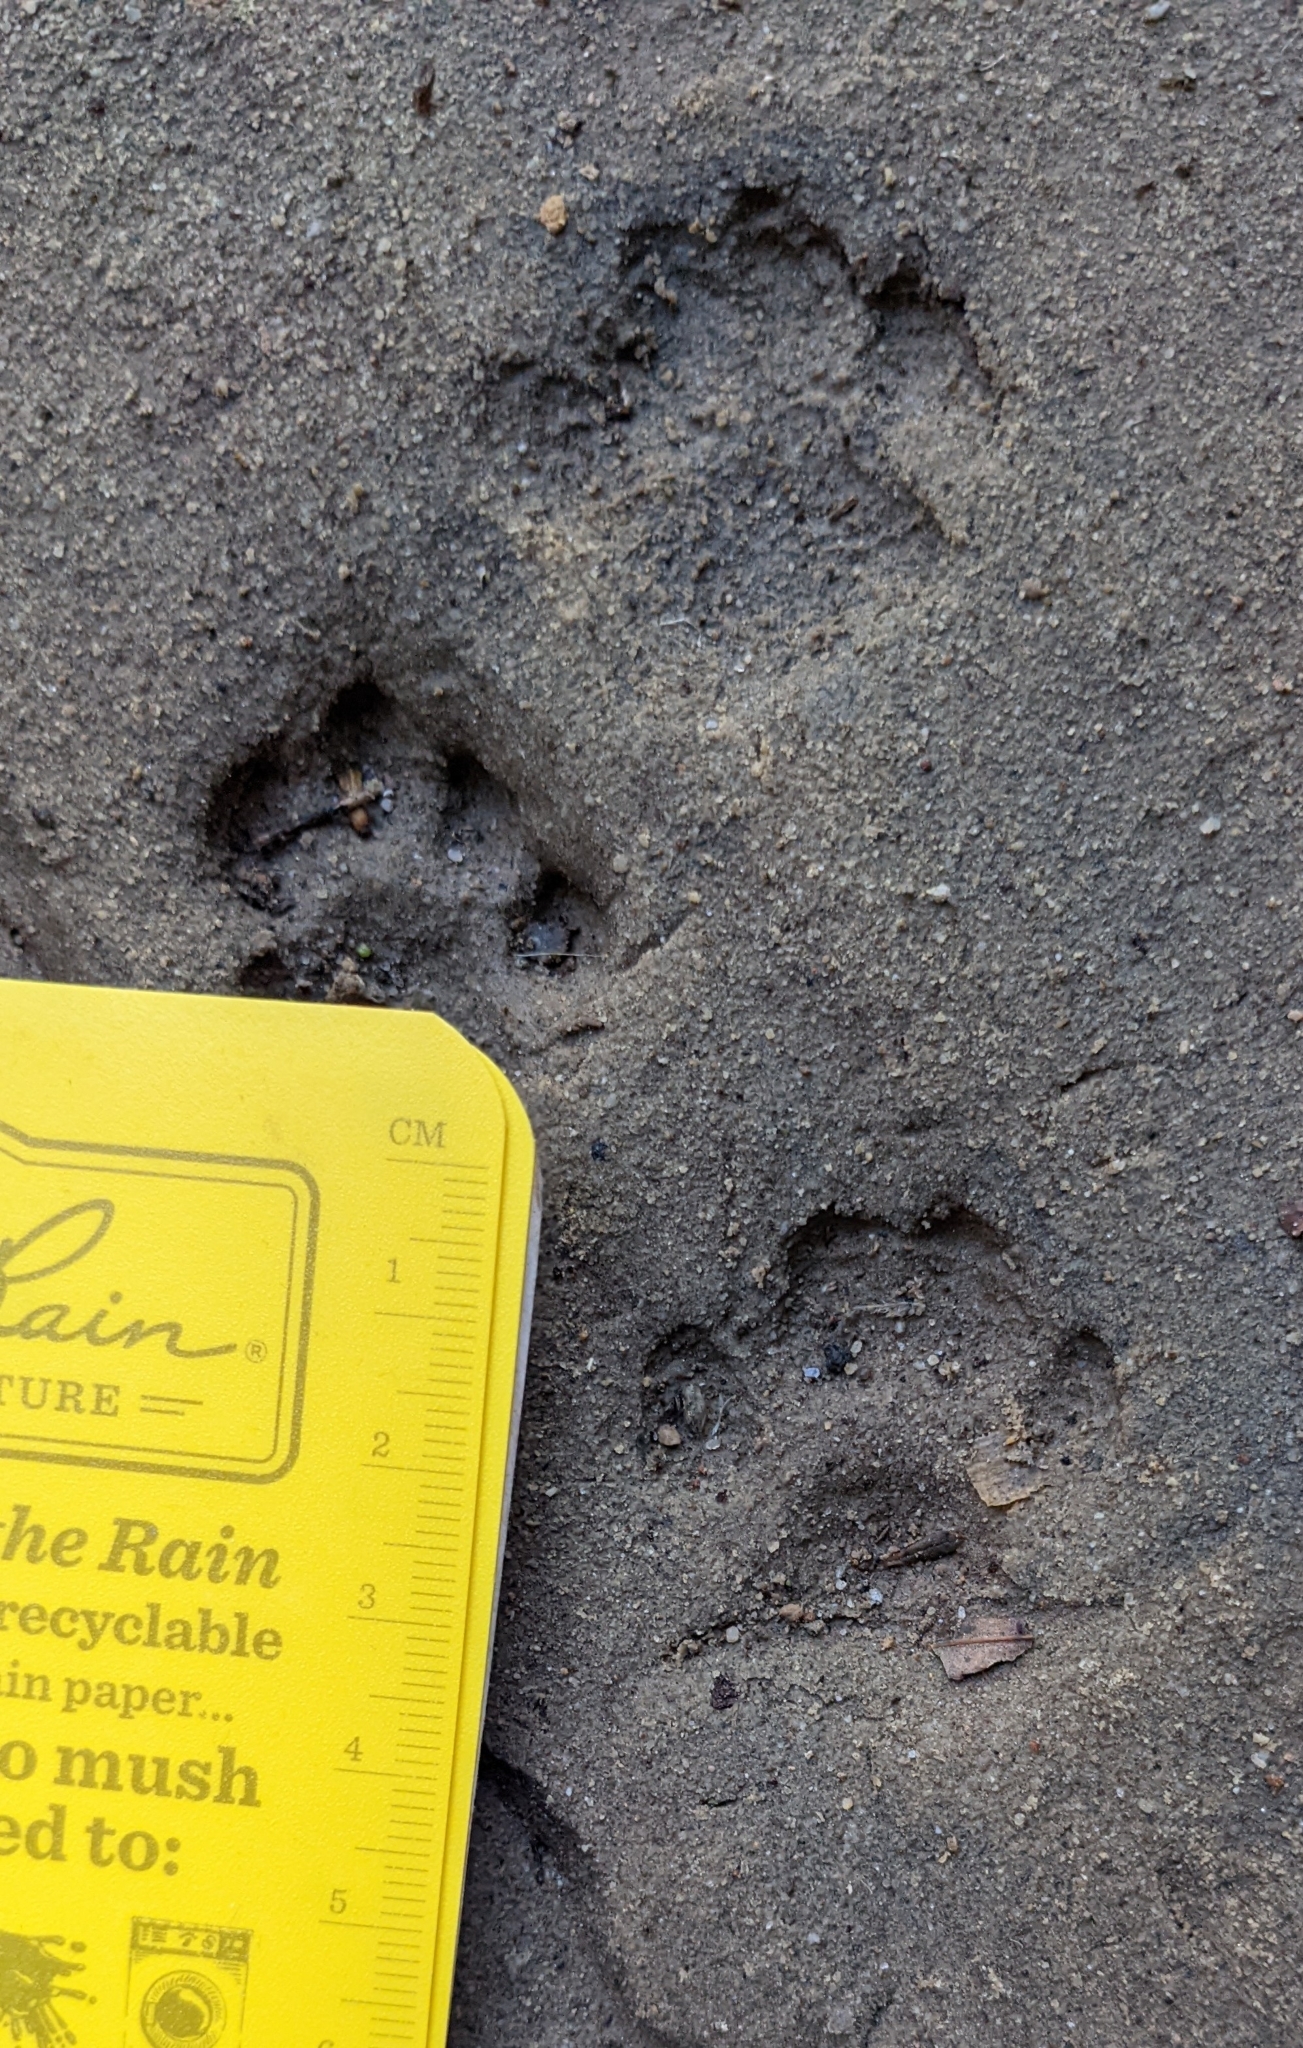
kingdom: Animalia
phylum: Chordata
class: Mammalia
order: Carnivora
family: Felidae
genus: Felis
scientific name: Felis catus
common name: Domestic cat
